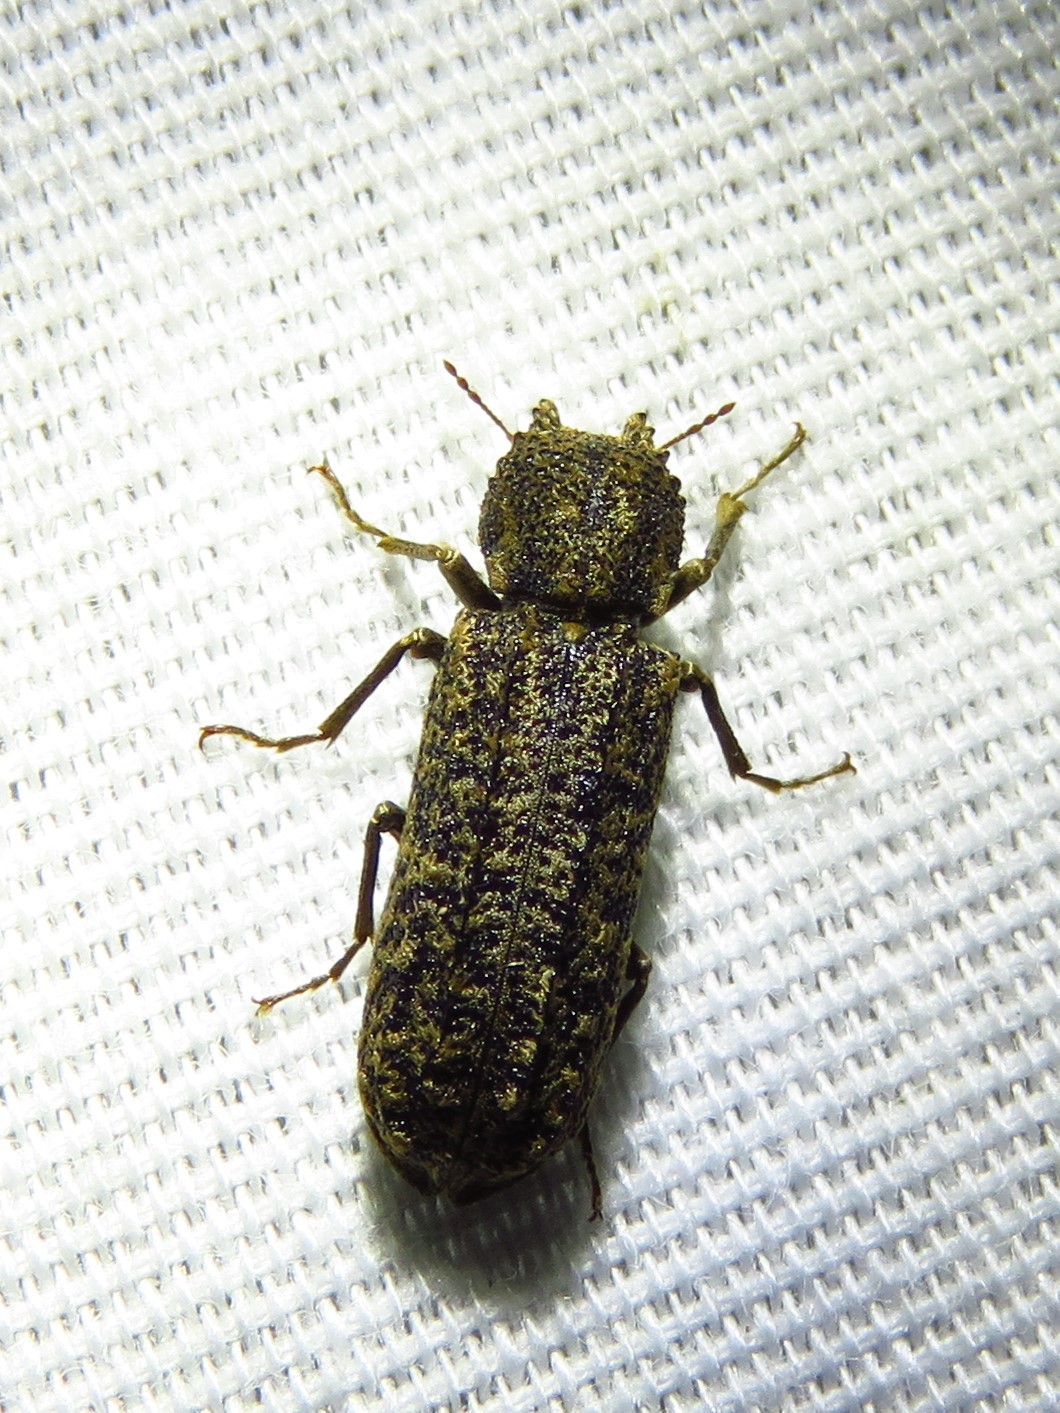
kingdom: Animalia
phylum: Arthropoda
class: Insecta
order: Coleoptera
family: Bostrichidae
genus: Lichenophanes
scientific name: Lichenophanes bicornis
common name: Two-horned powder-post beetle
